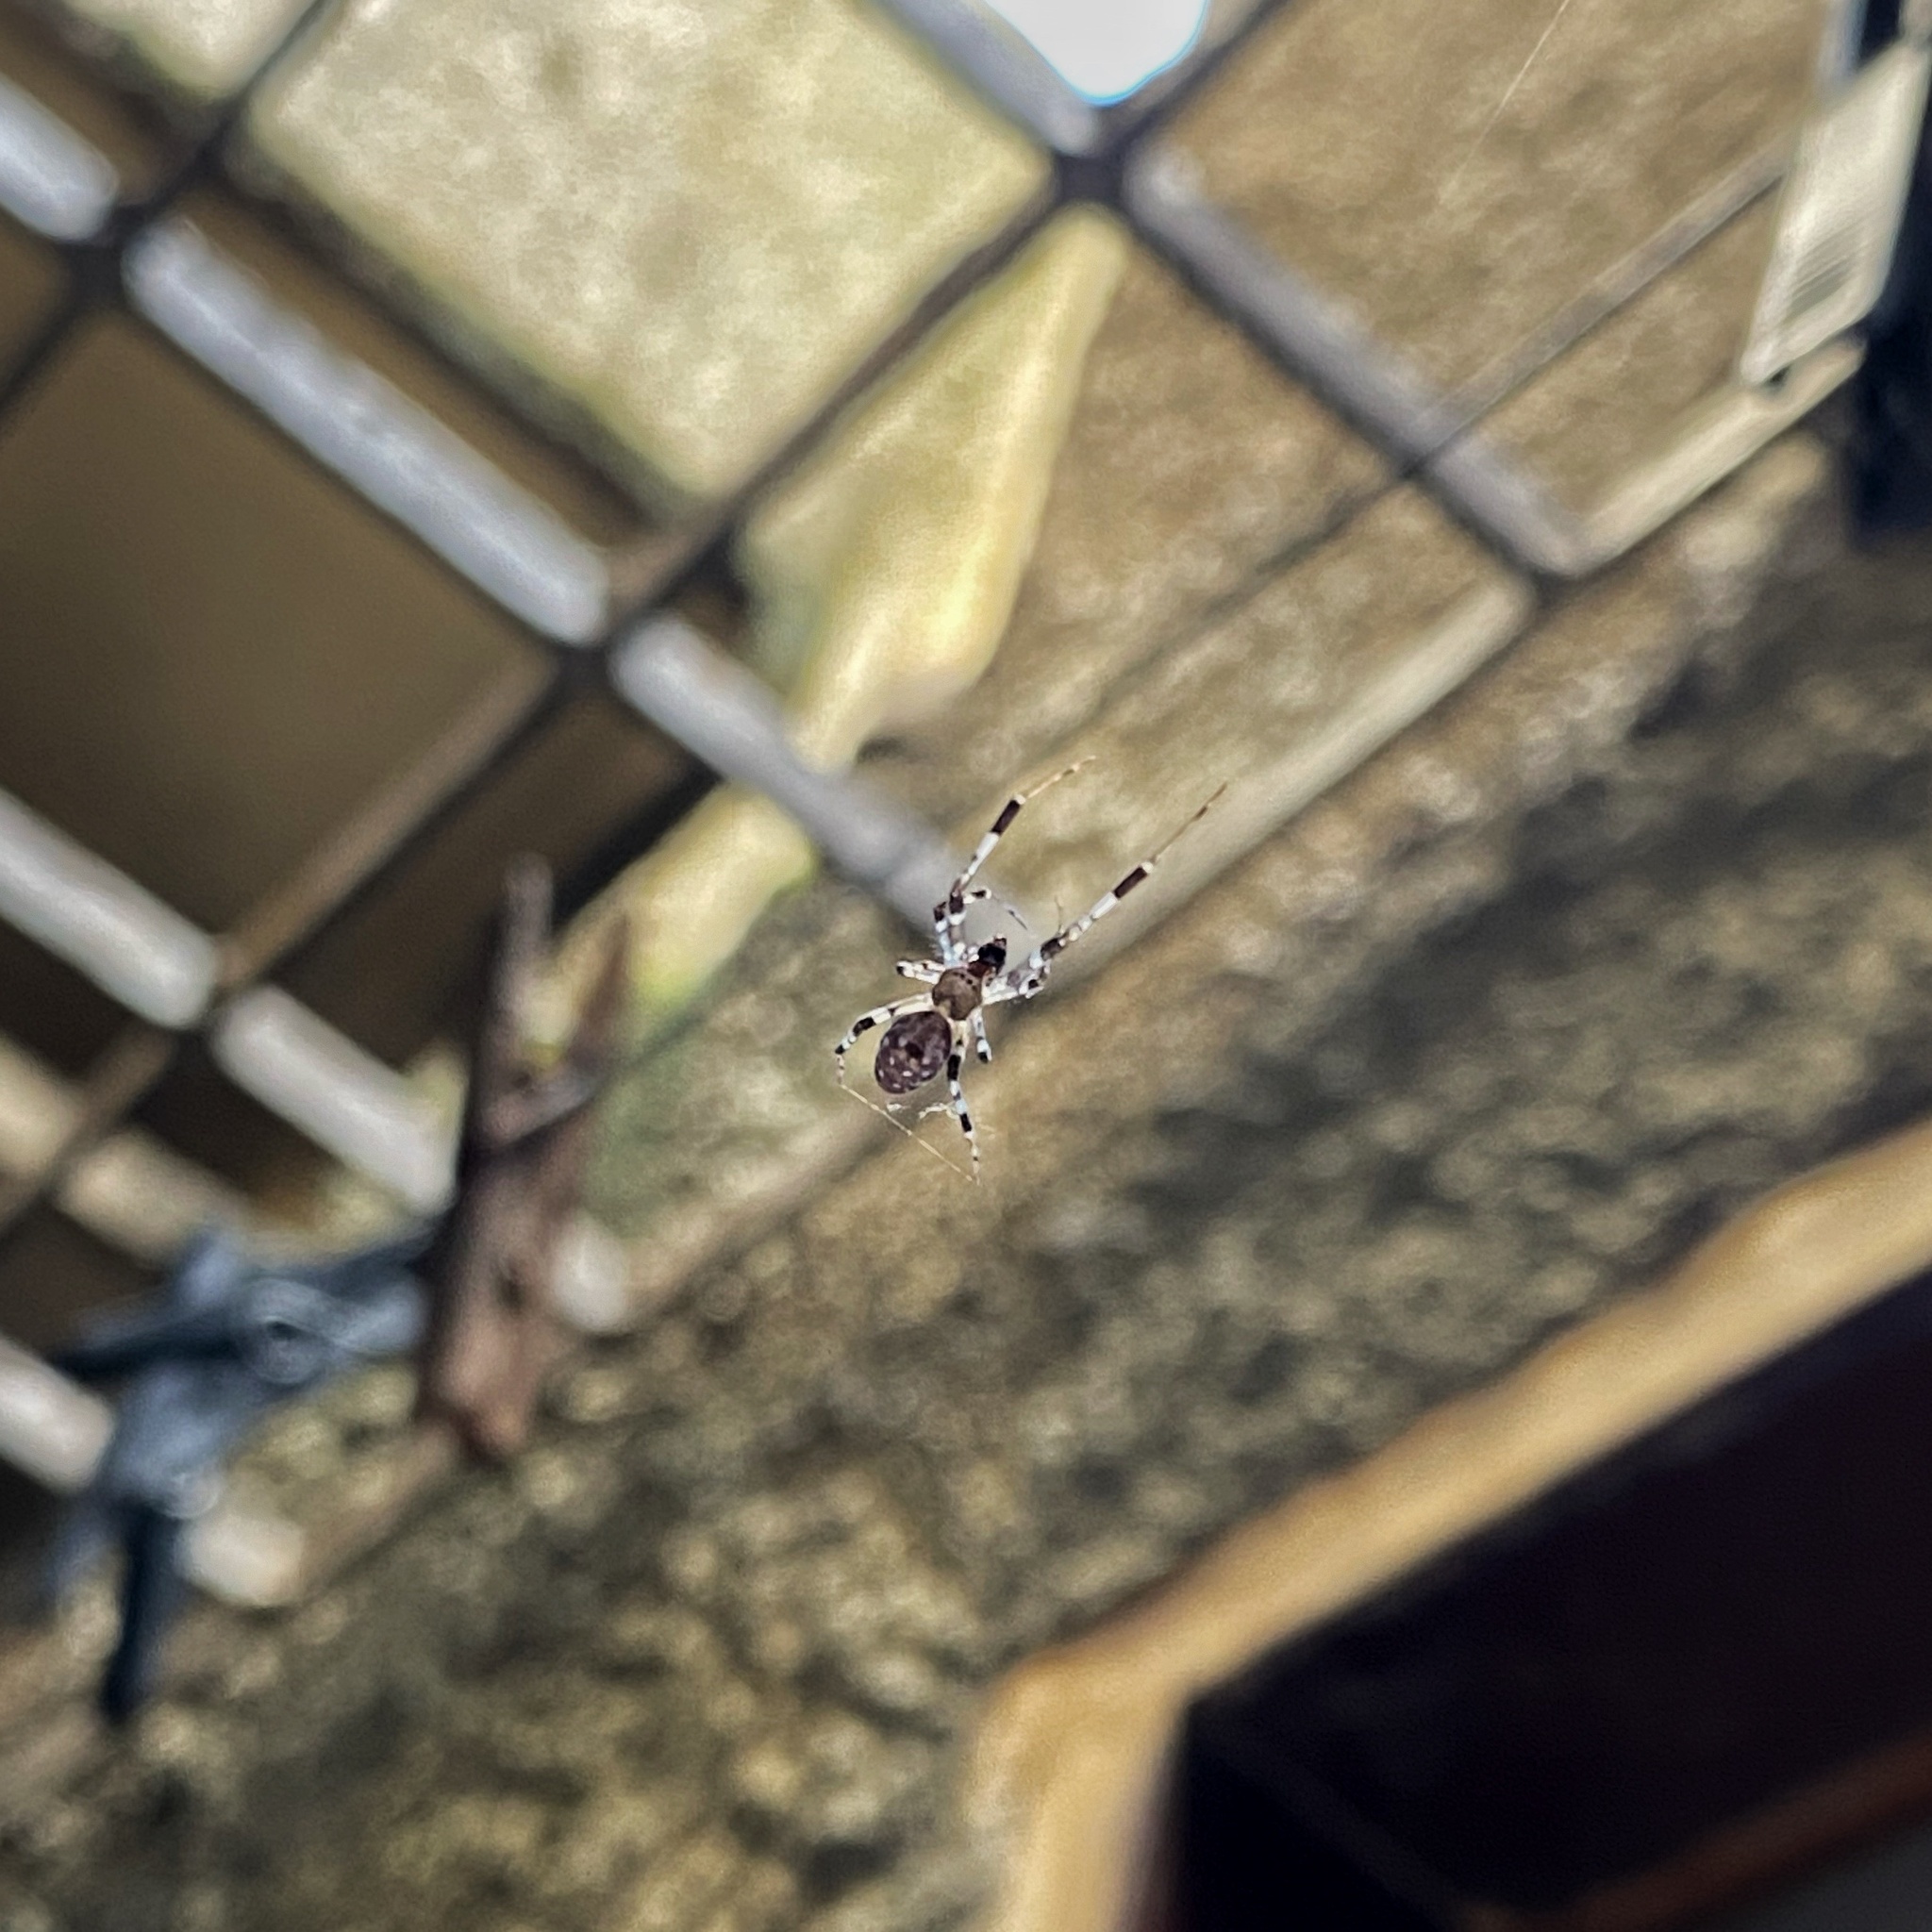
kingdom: Animalia
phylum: Arthropoda
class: Arachnida
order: Araneae
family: Uloboridae
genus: Zosis
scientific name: Zosis geniculata
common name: Hackled orb weavers
